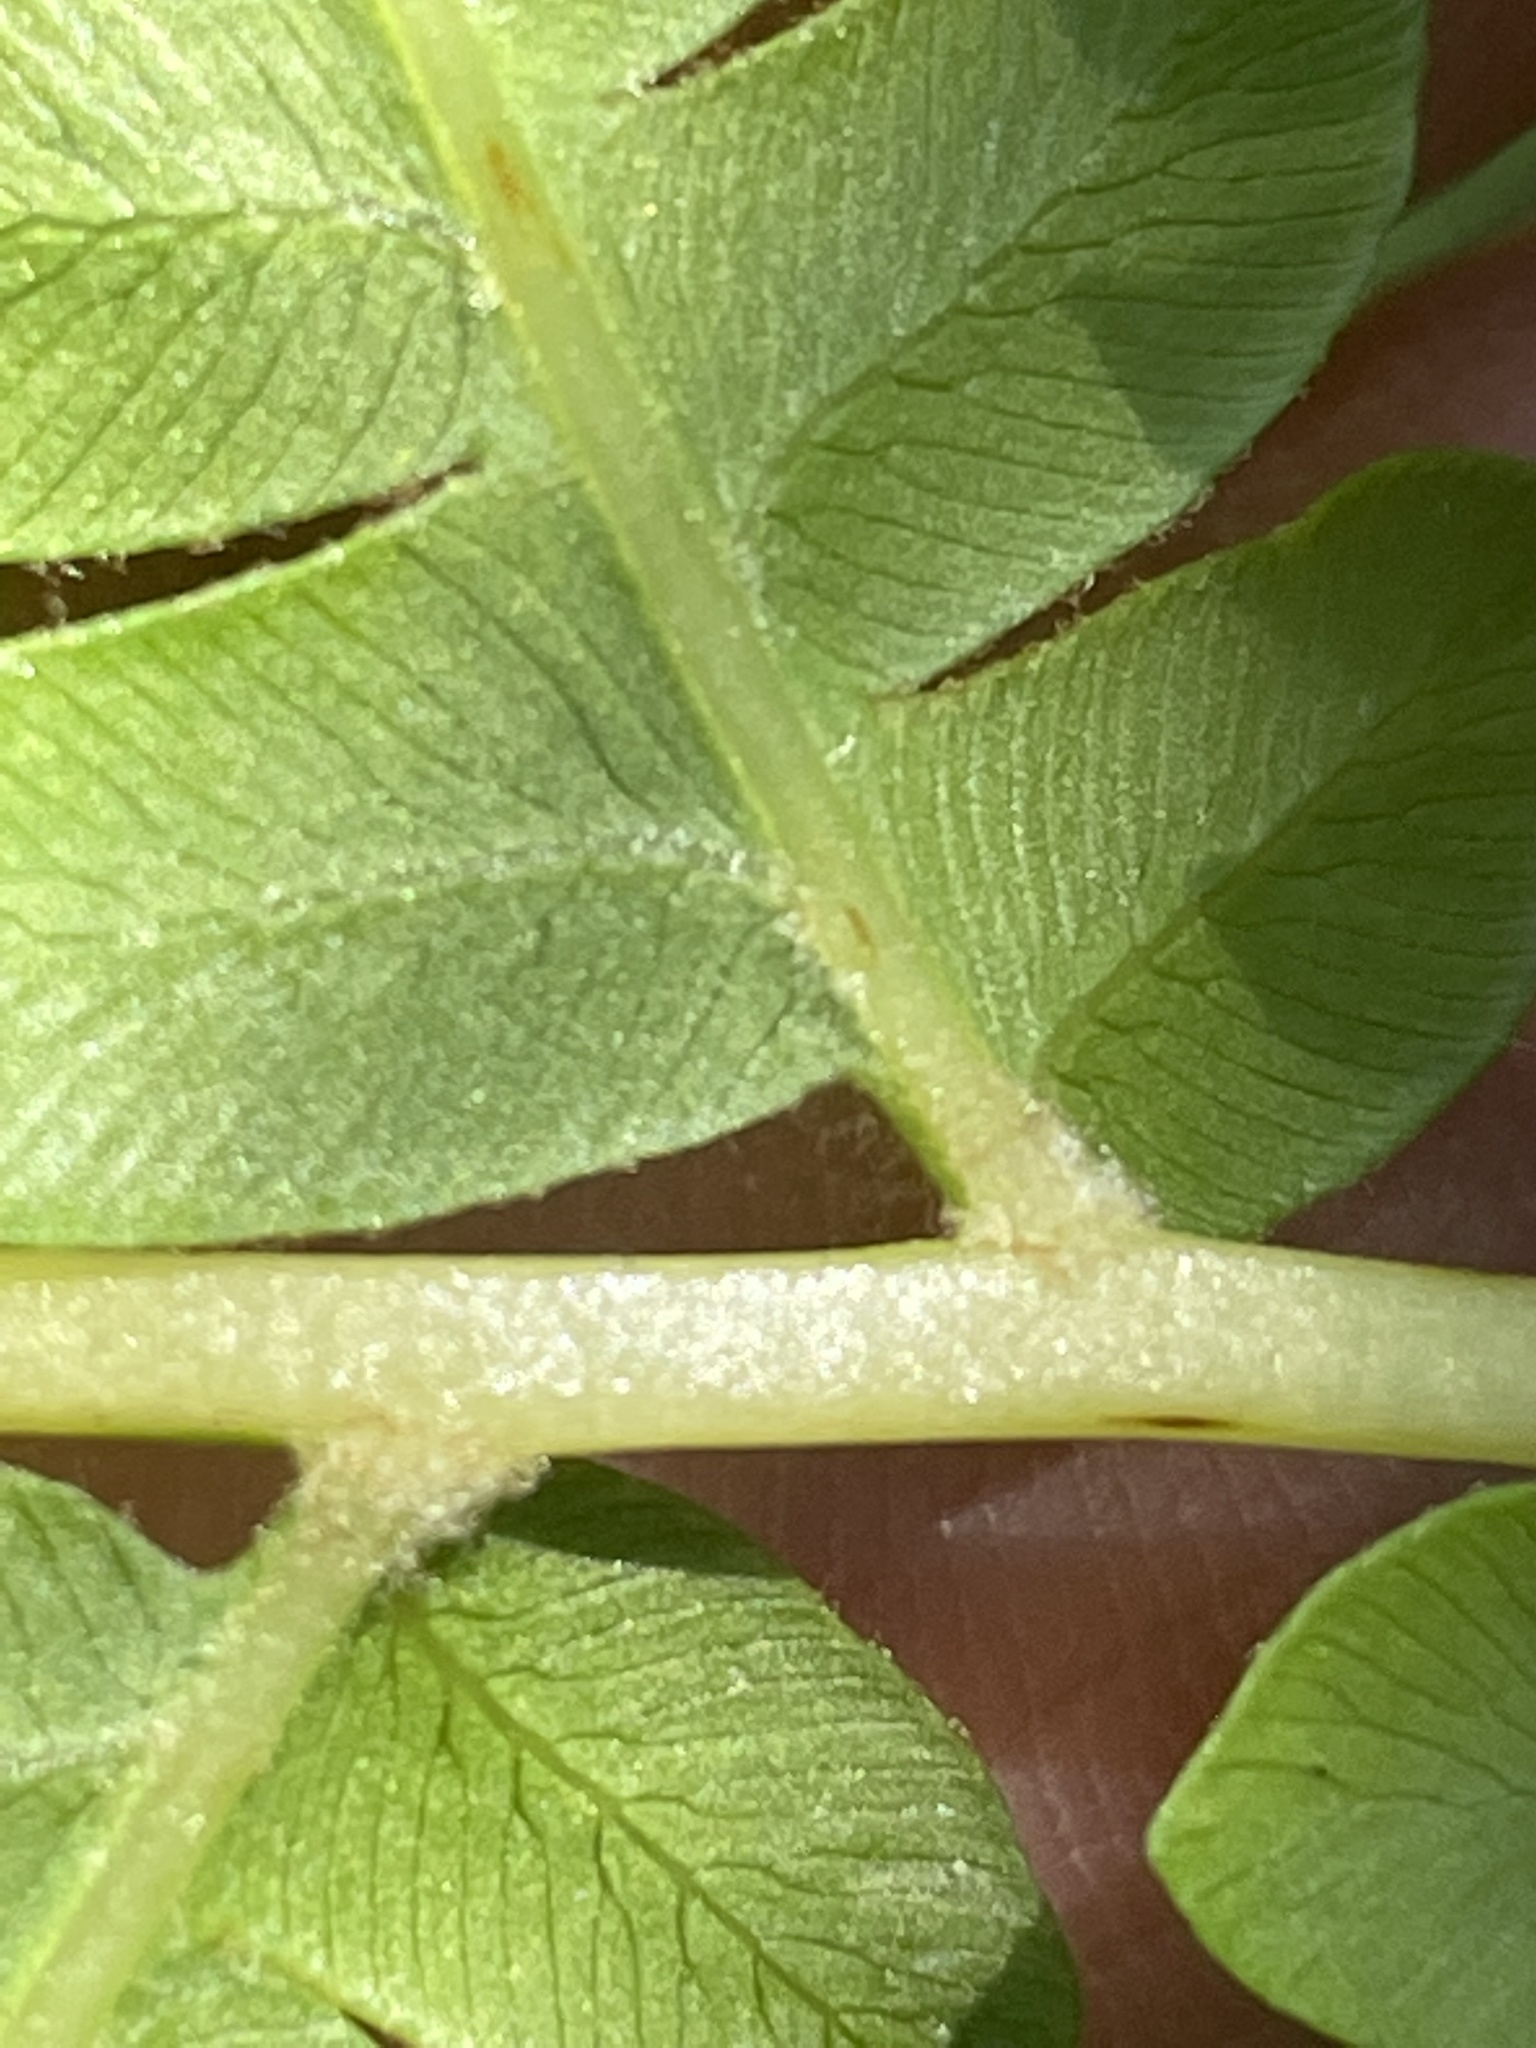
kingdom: Plantae
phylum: Tracheophyta
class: Polypodiopsida
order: Osmundales
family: Osmundaceae
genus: Osmundastrum
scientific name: Osmundastrum cinnamomeum
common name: Cinnamon fern
